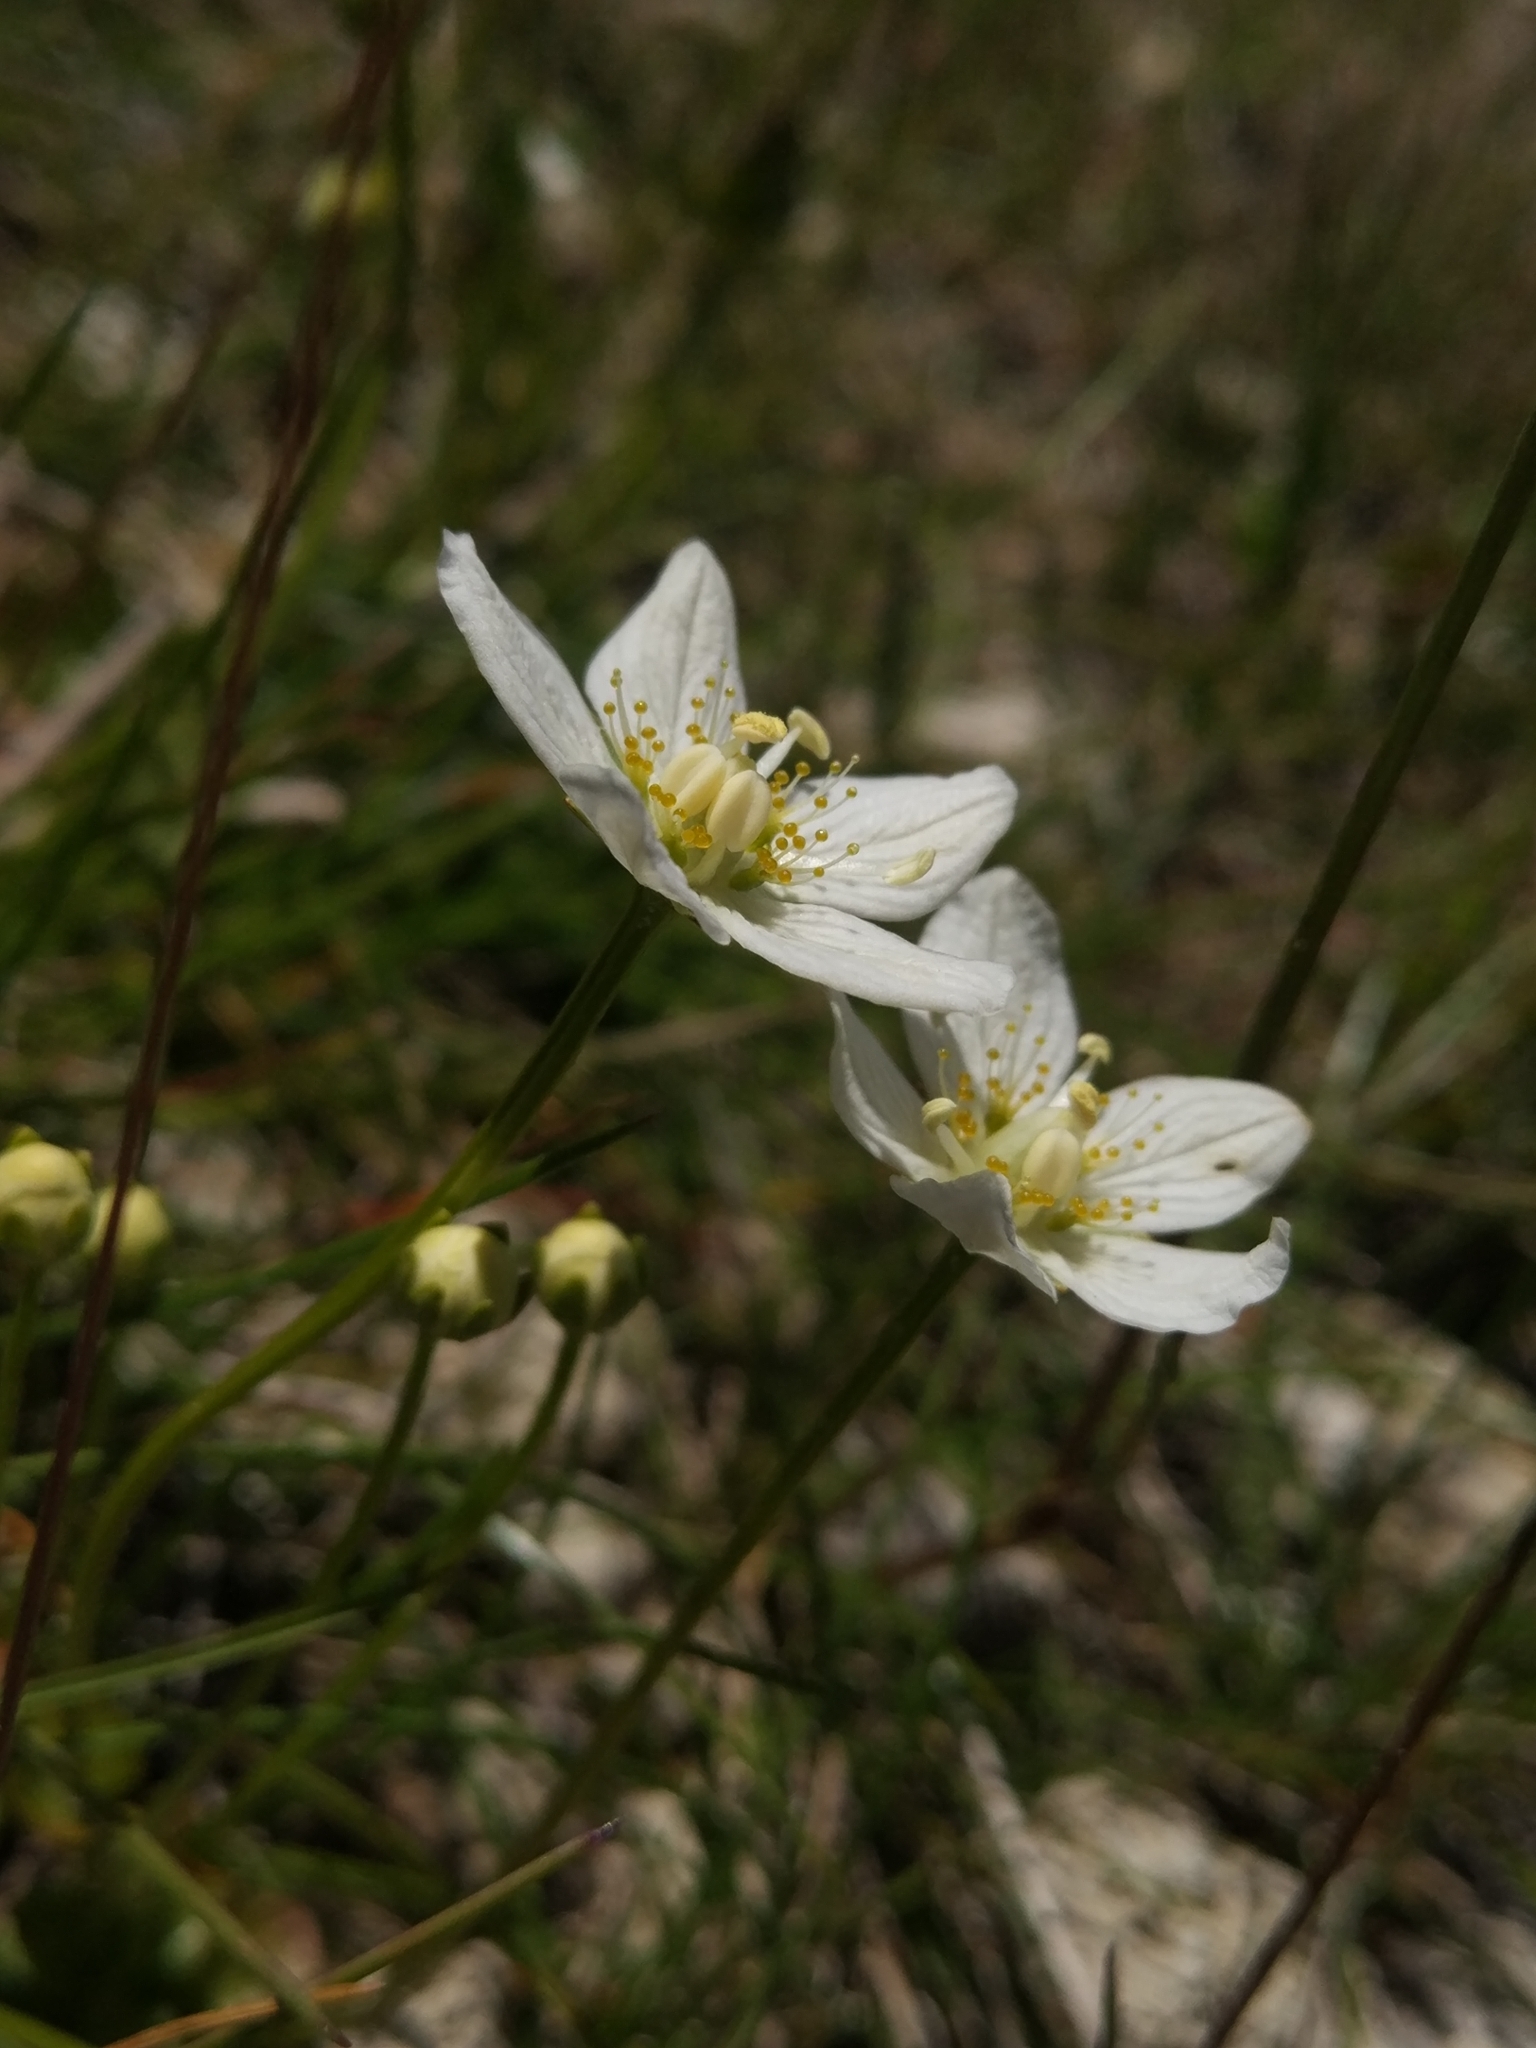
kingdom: Plantae
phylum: Tracheophyta
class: Magnoliopsida
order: Celastrales
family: Parnassiaceae
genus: Parnassia
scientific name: Parnassia palustris
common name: Grass-of-parnassus
